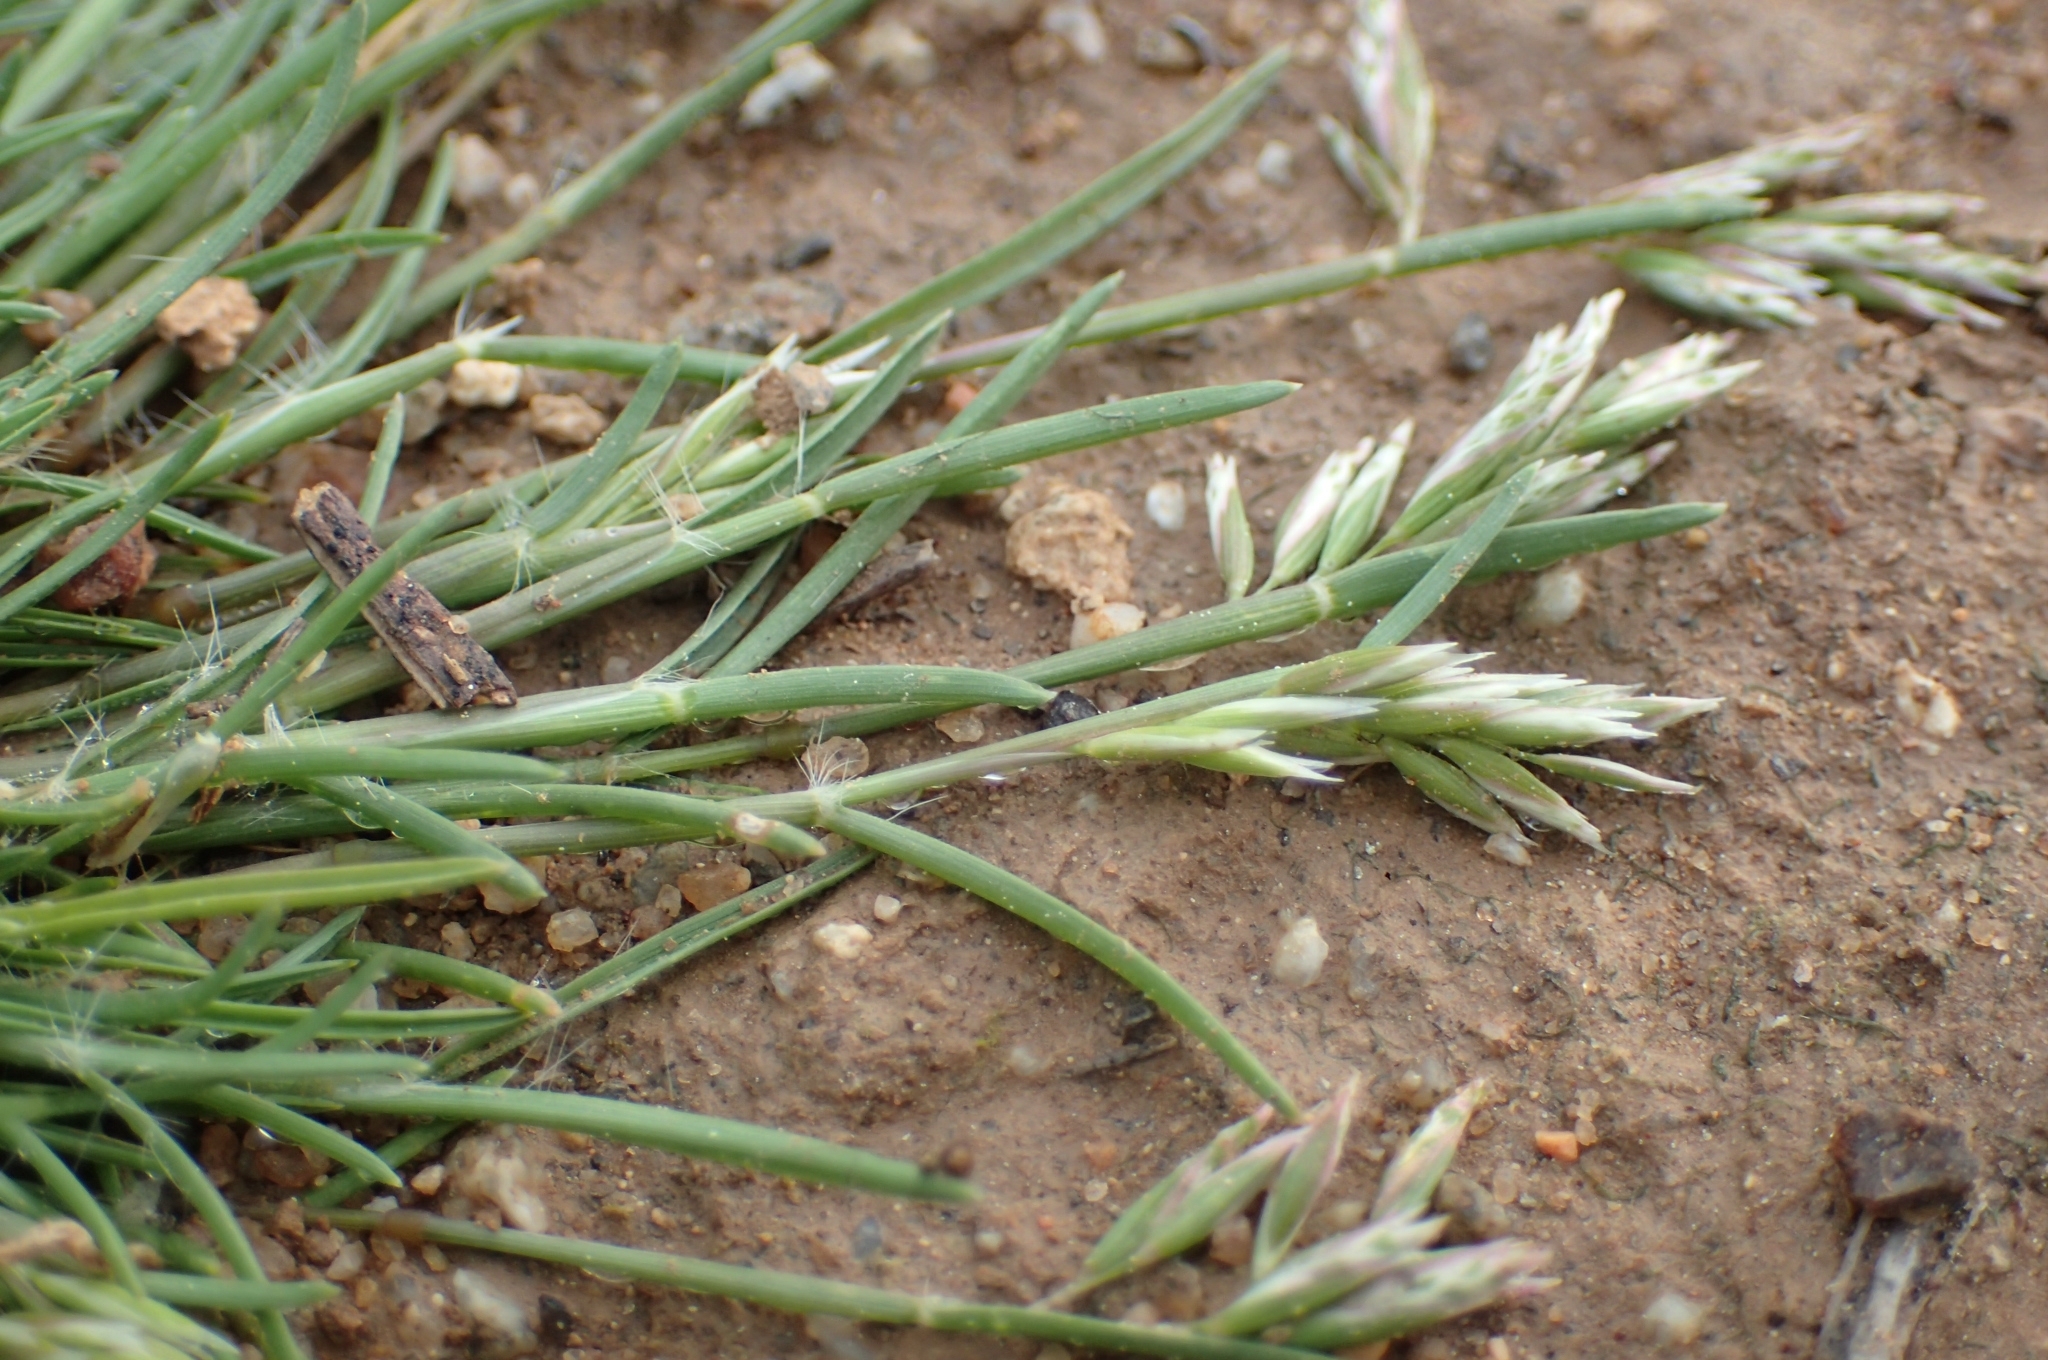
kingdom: Plantae
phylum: Tracheophyta
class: Liliopsida
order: Poales
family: Poaceae
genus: Schismus
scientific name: Schismus barbatus
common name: Kelch-grass
